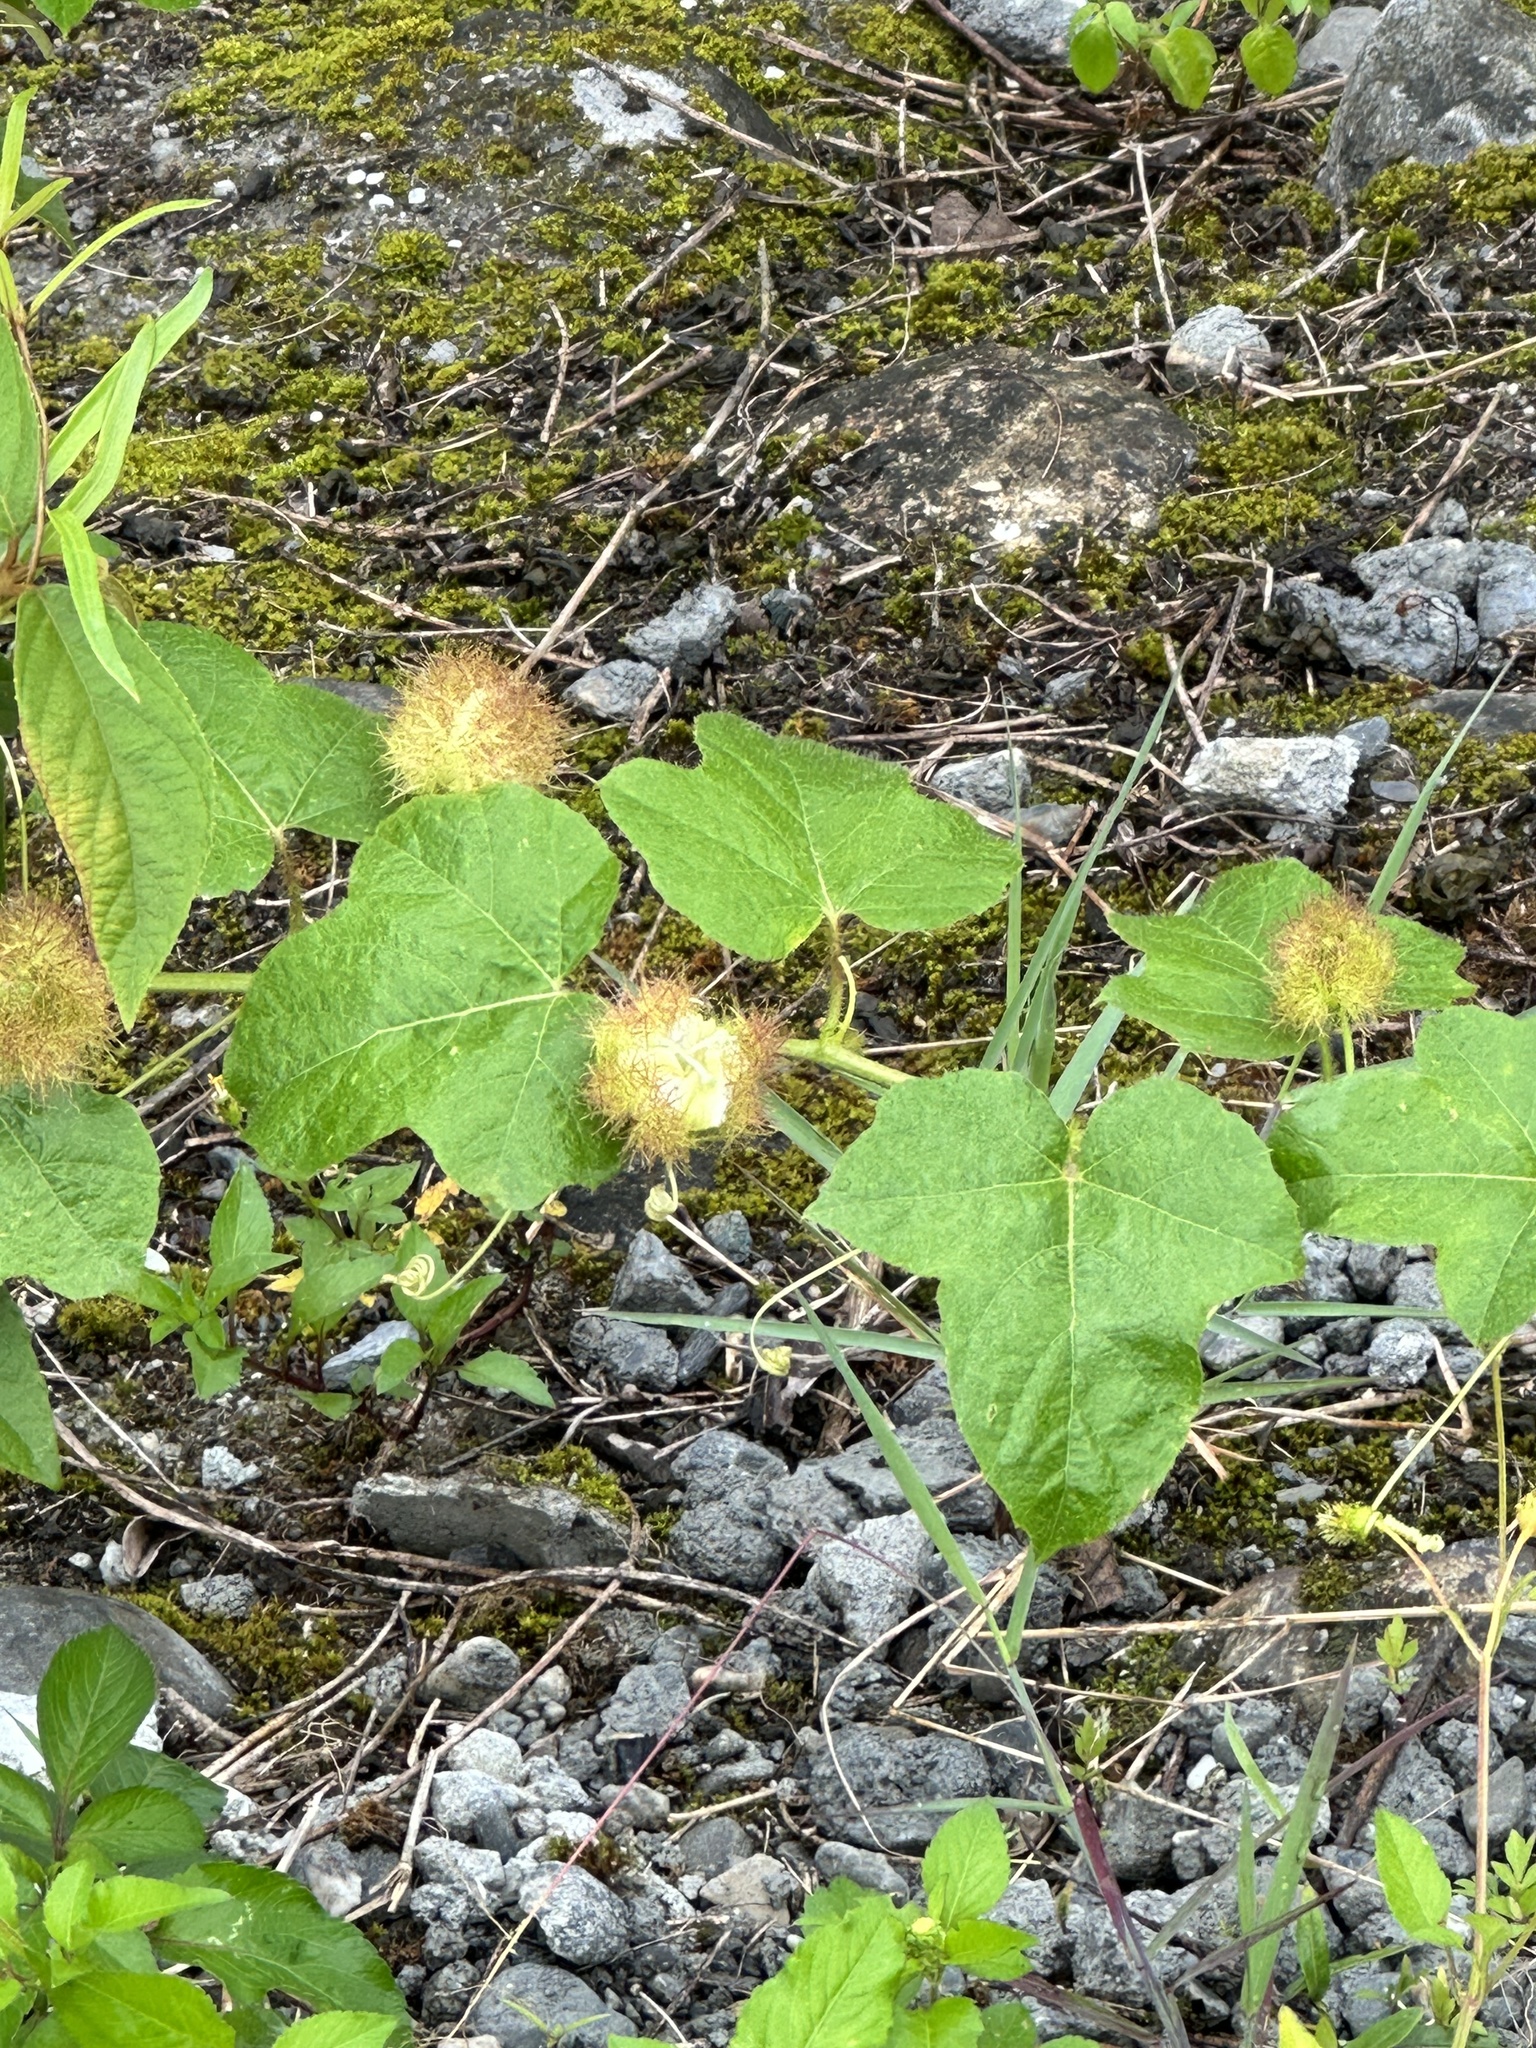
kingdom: Plantae
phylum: Tracheophyta
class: Magnoliopsida
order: Malpighiales
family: Passifloraceae
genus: Passiflora
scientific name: Passiflora vesicaria
